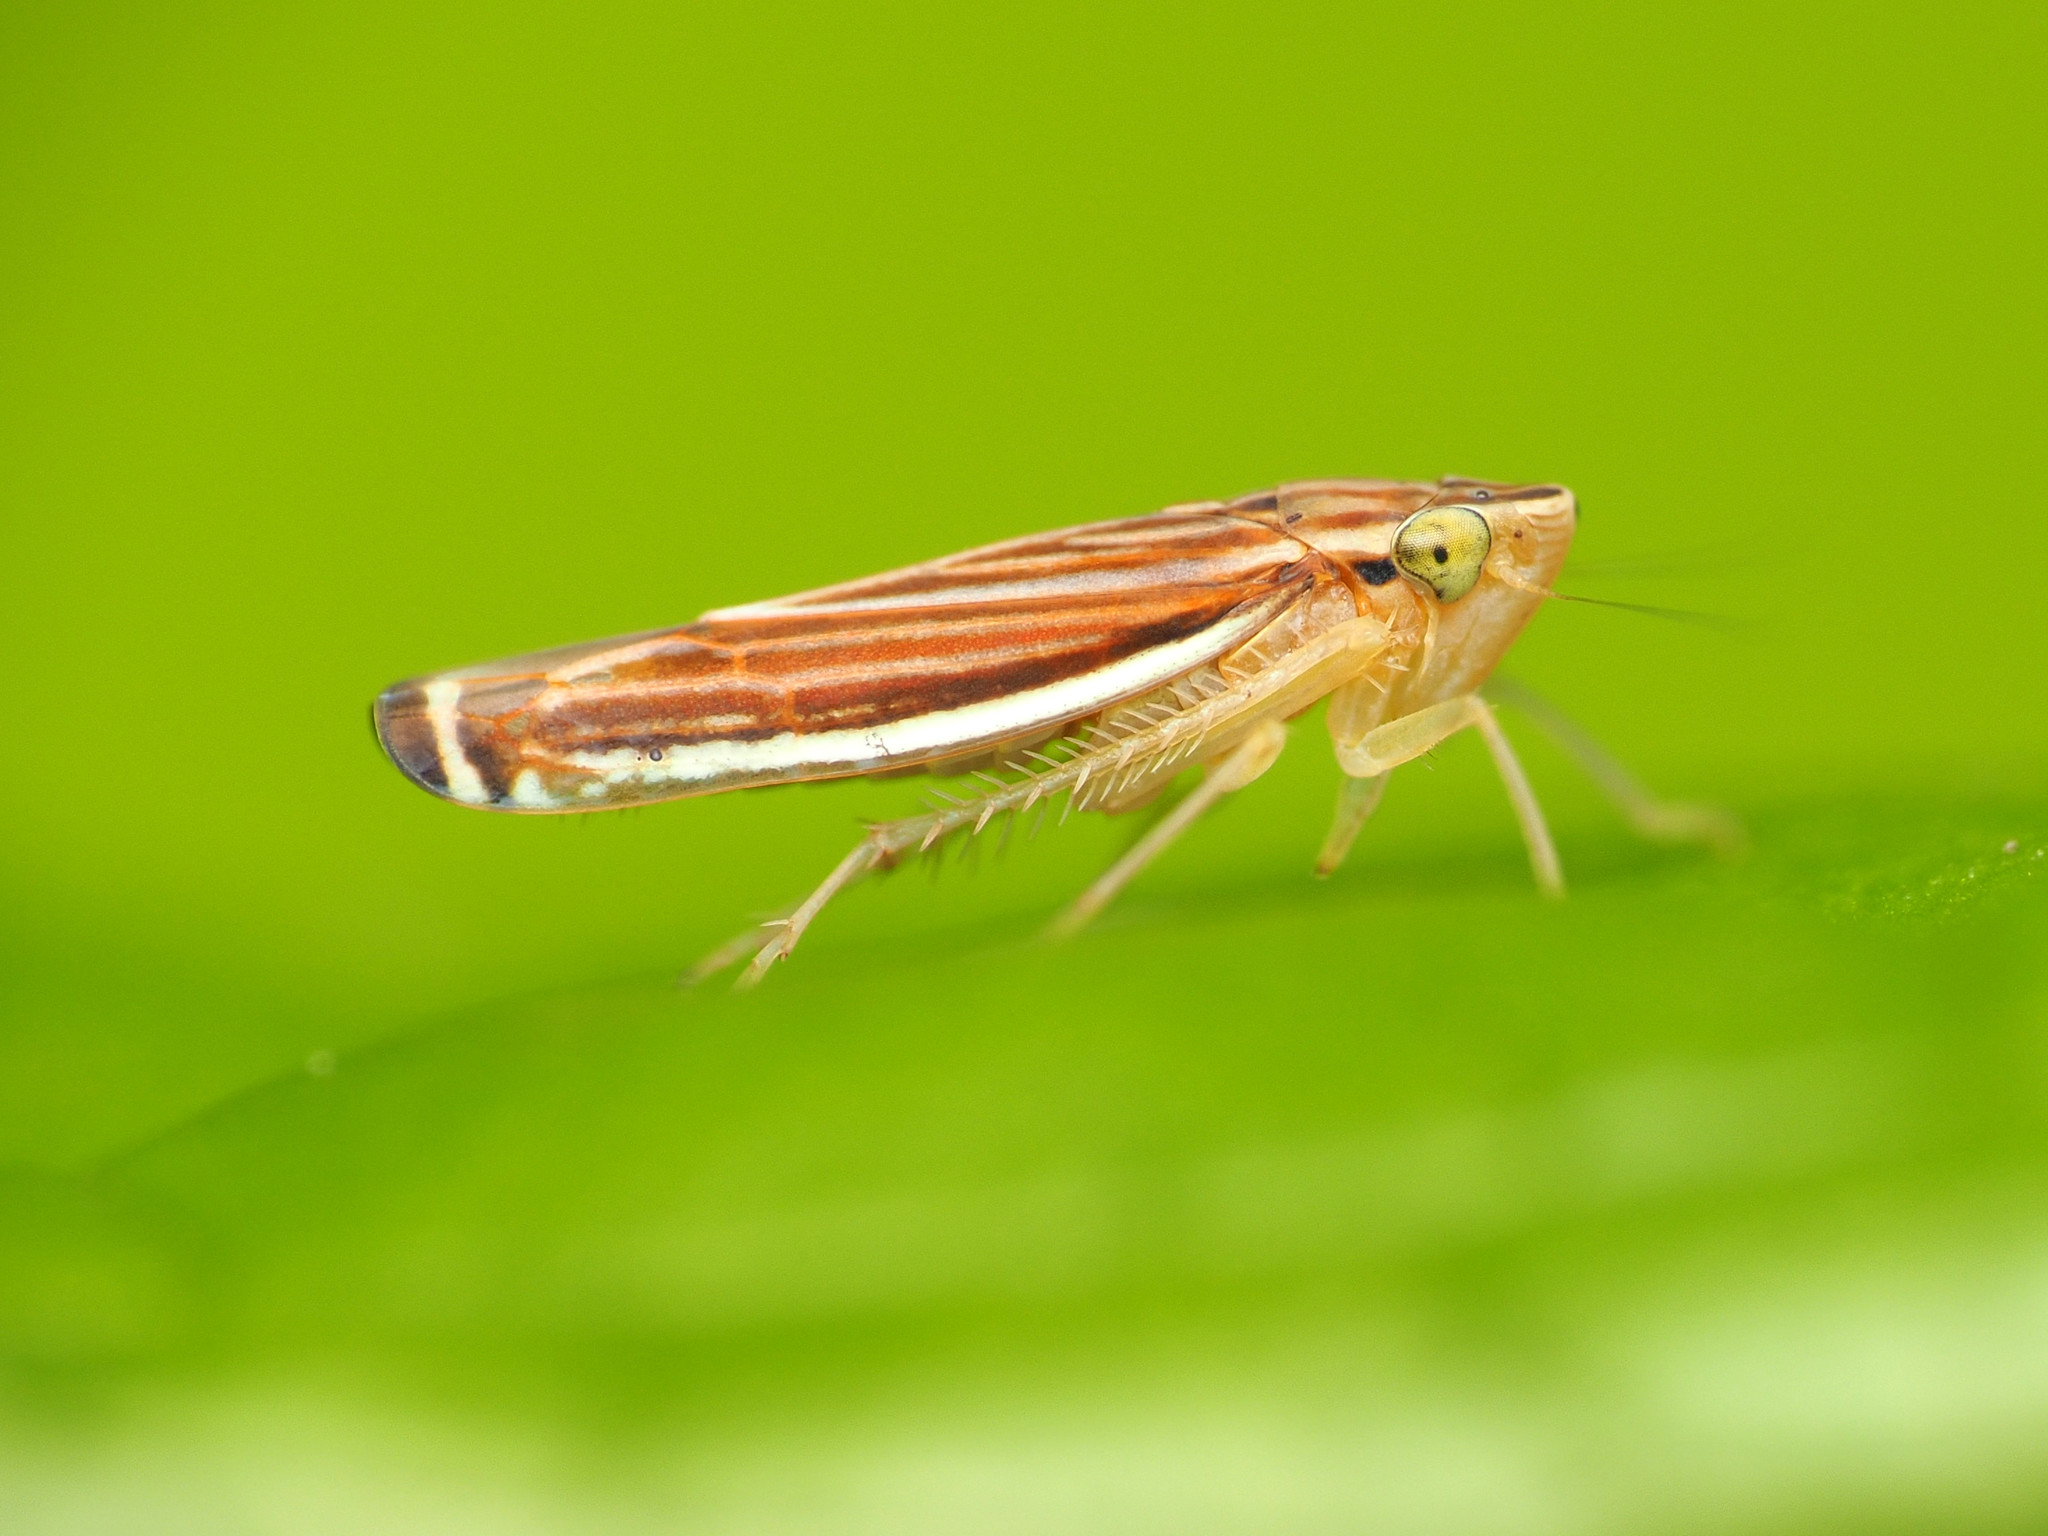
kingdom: Animalia
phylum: Arthropoda
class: Insecta
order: Hemiptera
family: Cicadellidae
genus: Sibovia
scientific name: Sibovia occatoria
